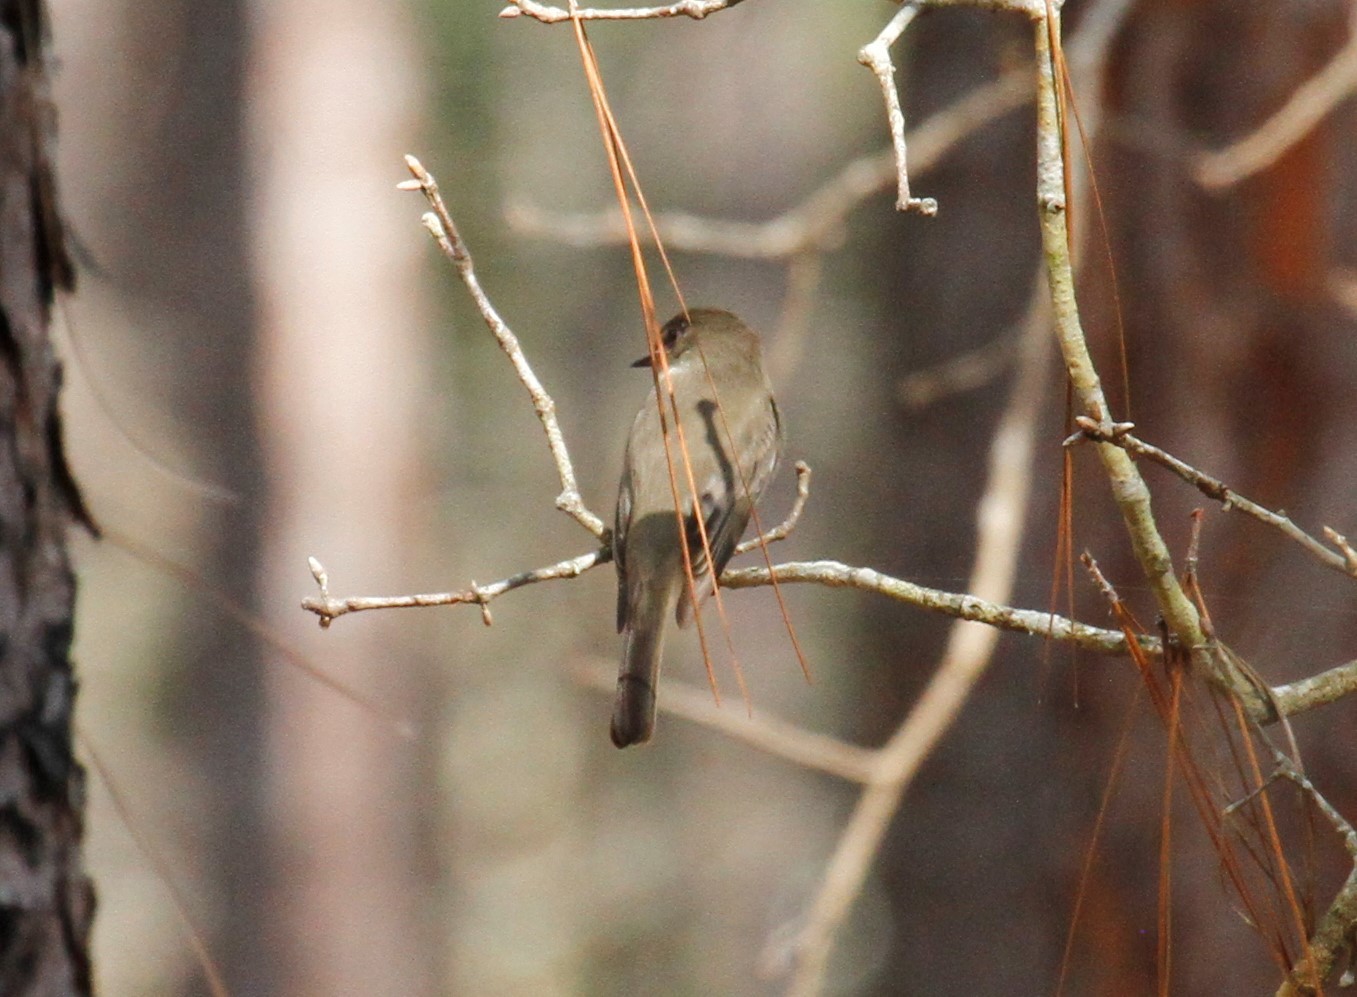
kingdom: Animalia
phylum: Chordata
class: Aves
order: Passeriformes
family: Tyrannidae
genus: Sayornis
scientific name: Sayornis phoebe
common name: Eastern phoebe
